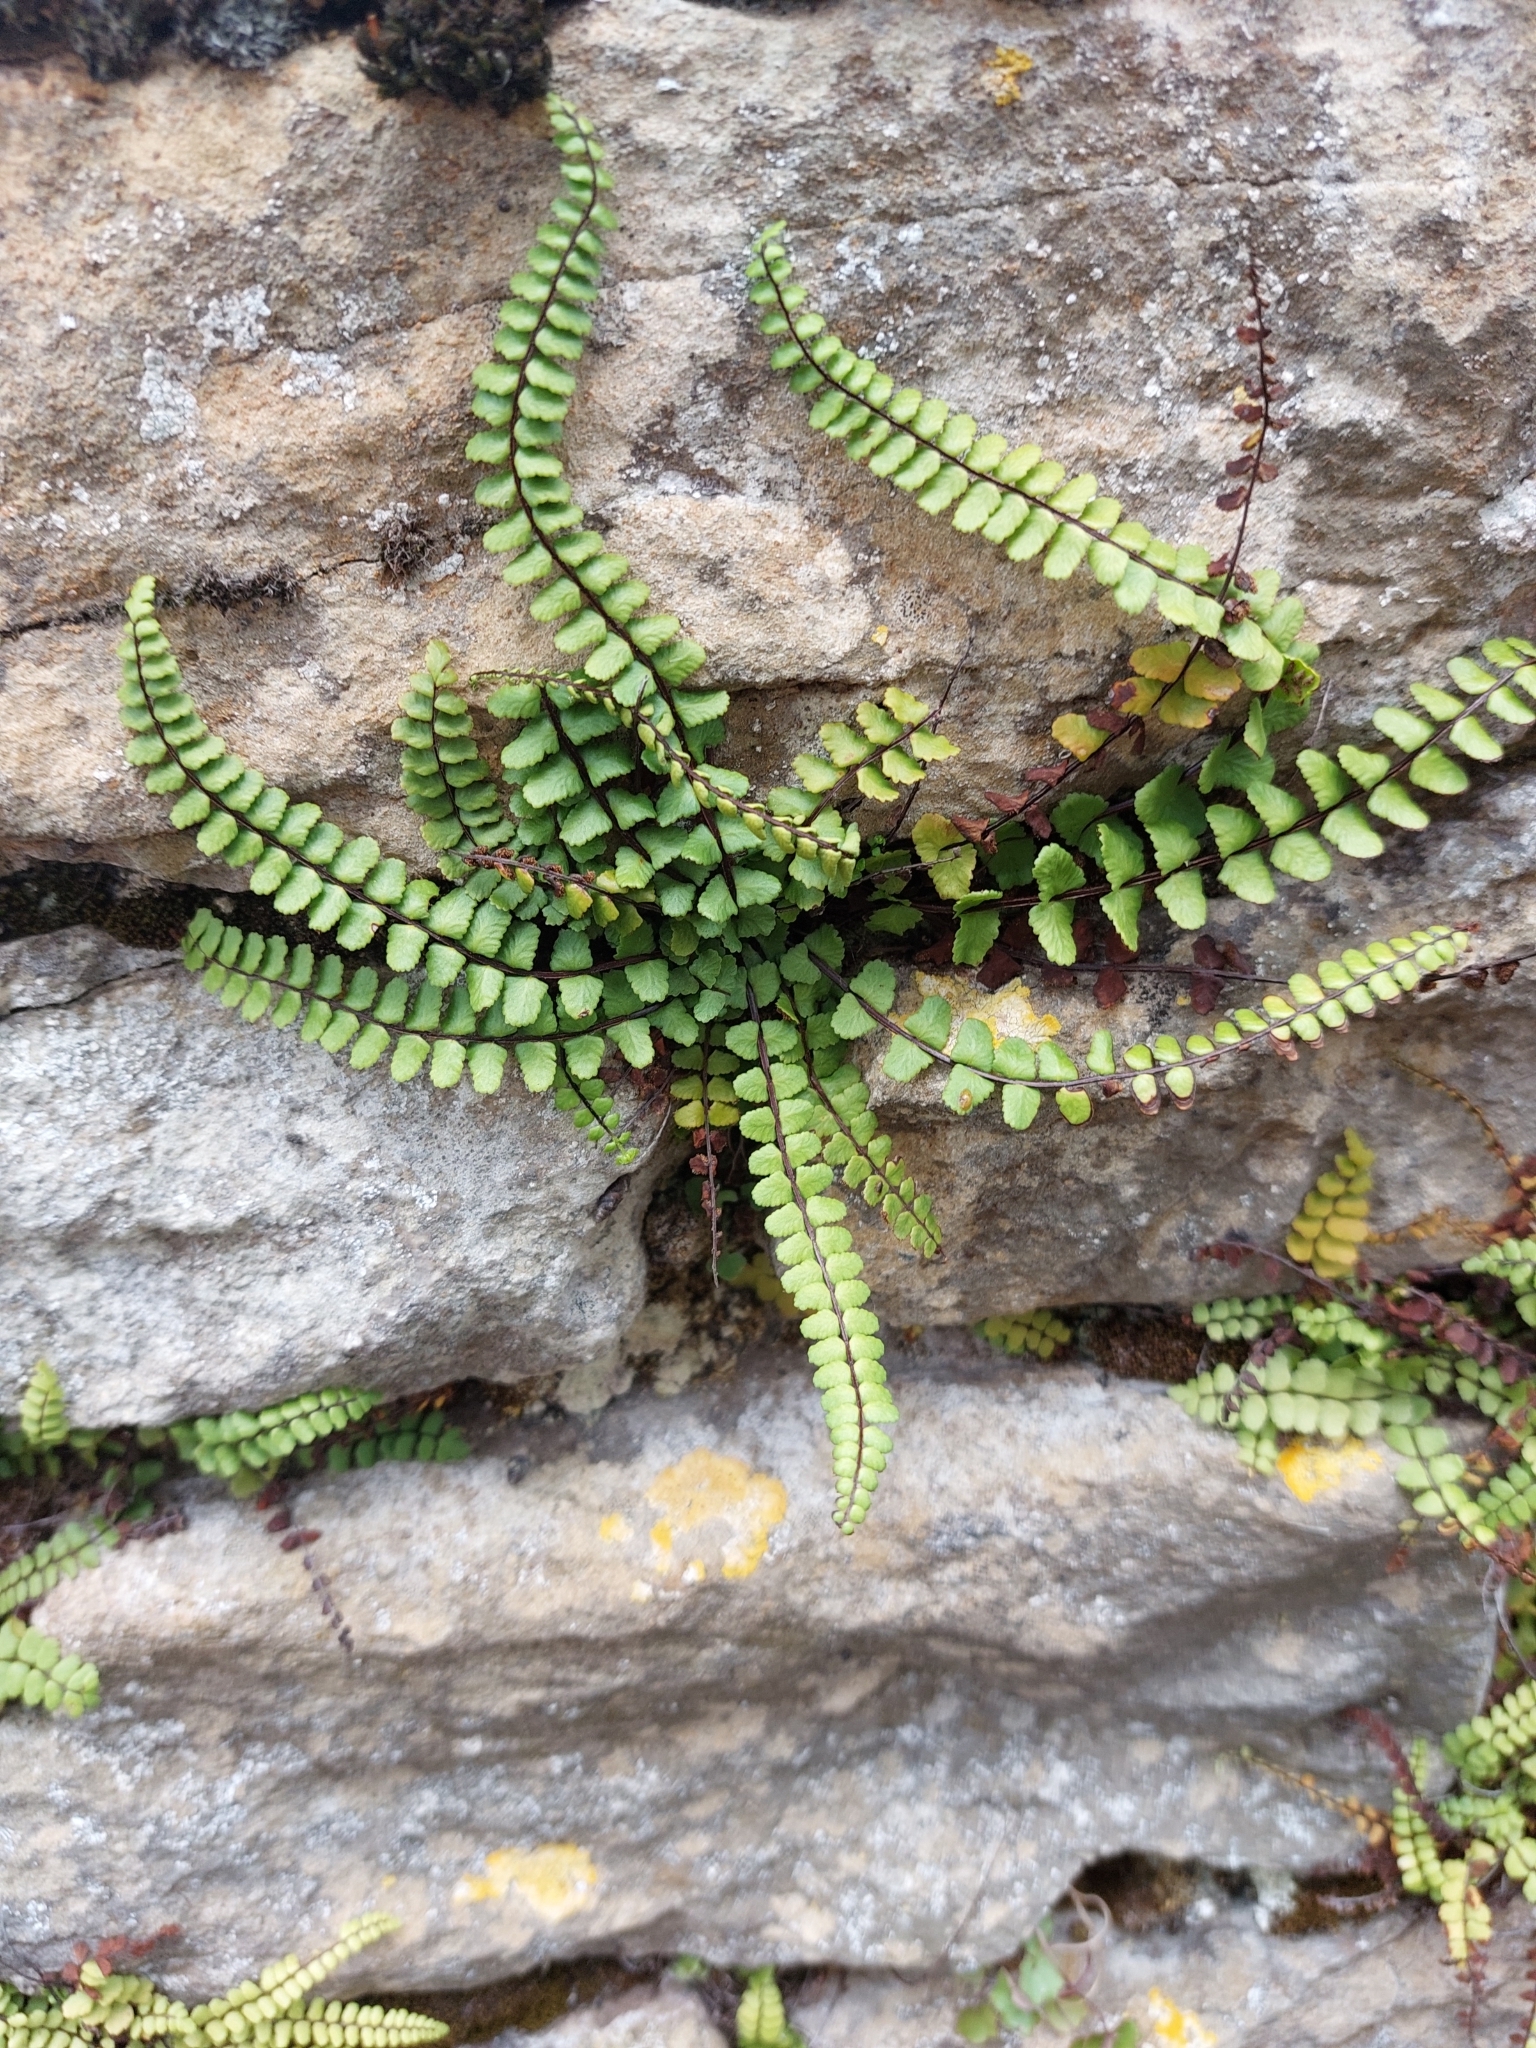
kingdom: Plantae
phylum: Tracheophyta
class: Polypodiopsida
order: Polypodiales
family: Aspleniaceae
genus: Asplenium
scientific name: Asplenium trichomanes
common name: Maidenhair spleenwort
